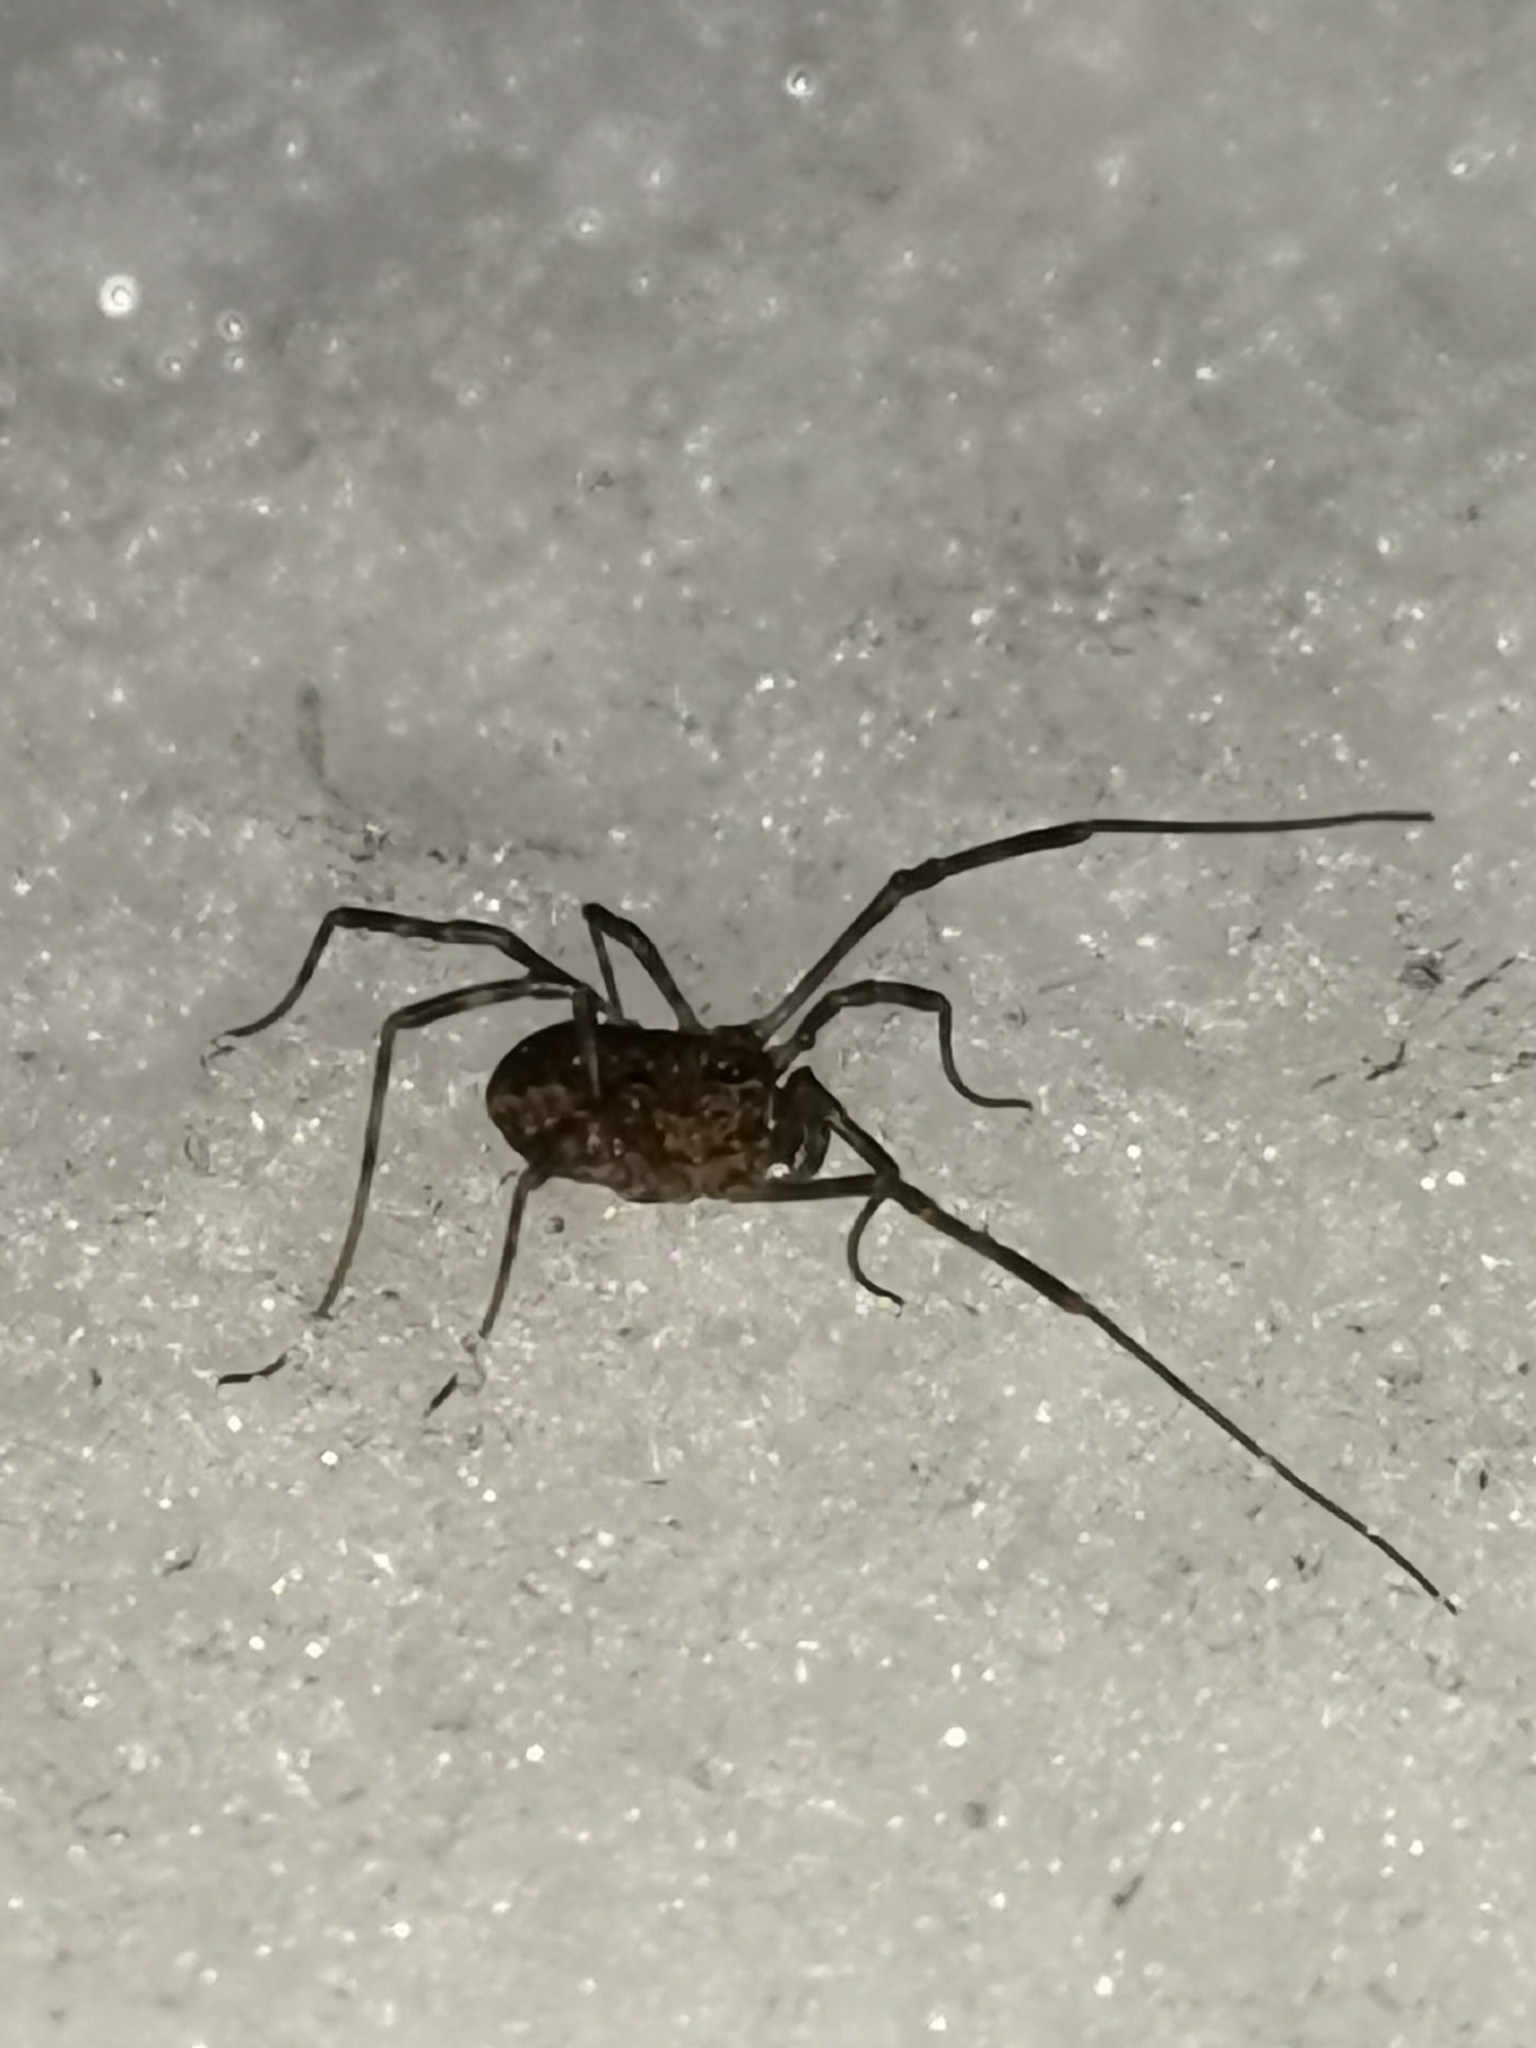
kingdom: Animalia
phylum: Arthropoda
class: Arachnida
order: Opiliones
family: Phalangiidae
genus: Rilaena
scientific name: Rilaena triangularis
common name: Spring harvestman
